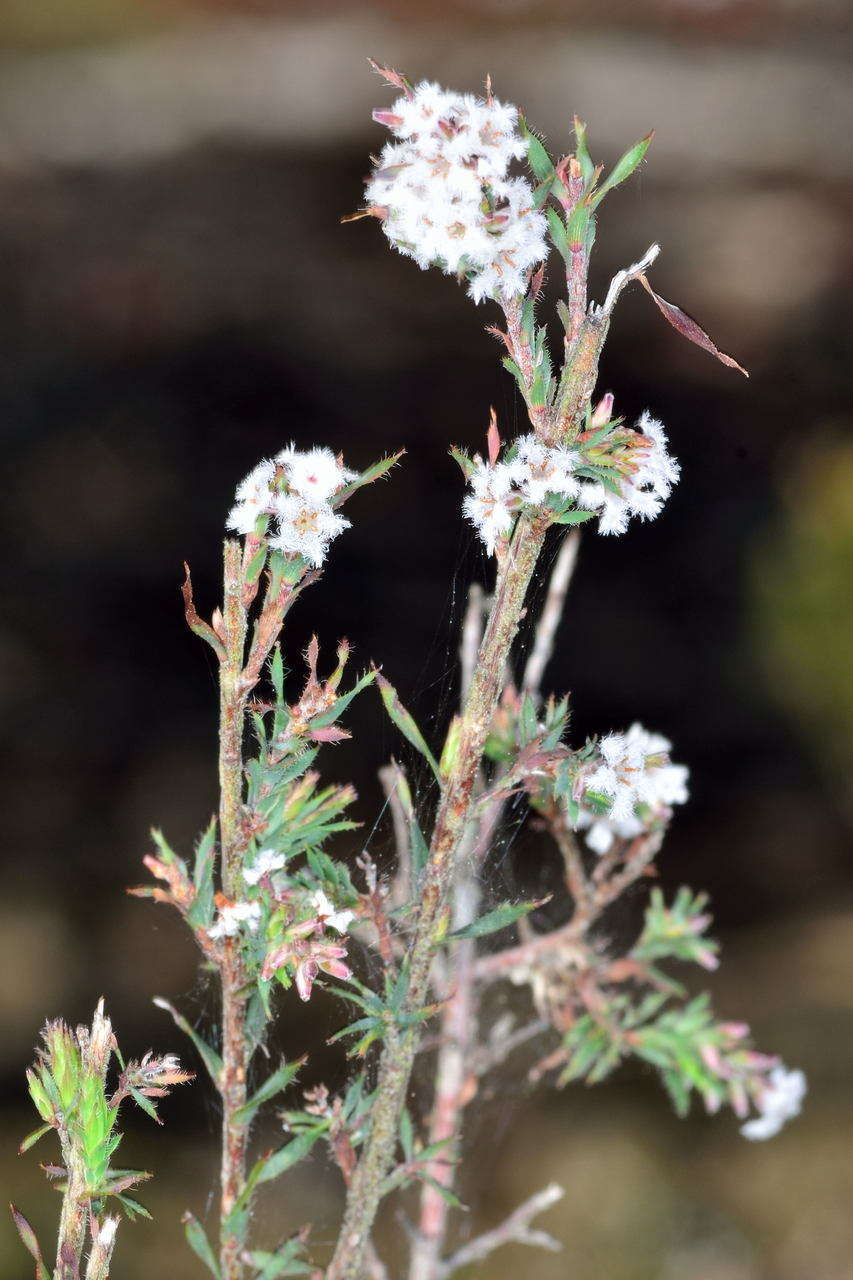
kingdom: Plantae
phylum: Tracheophyta
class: Magnoliopsida
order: Ericales
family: Ericaceae
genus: Leucopogon
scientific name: Leucopogon glacialis
